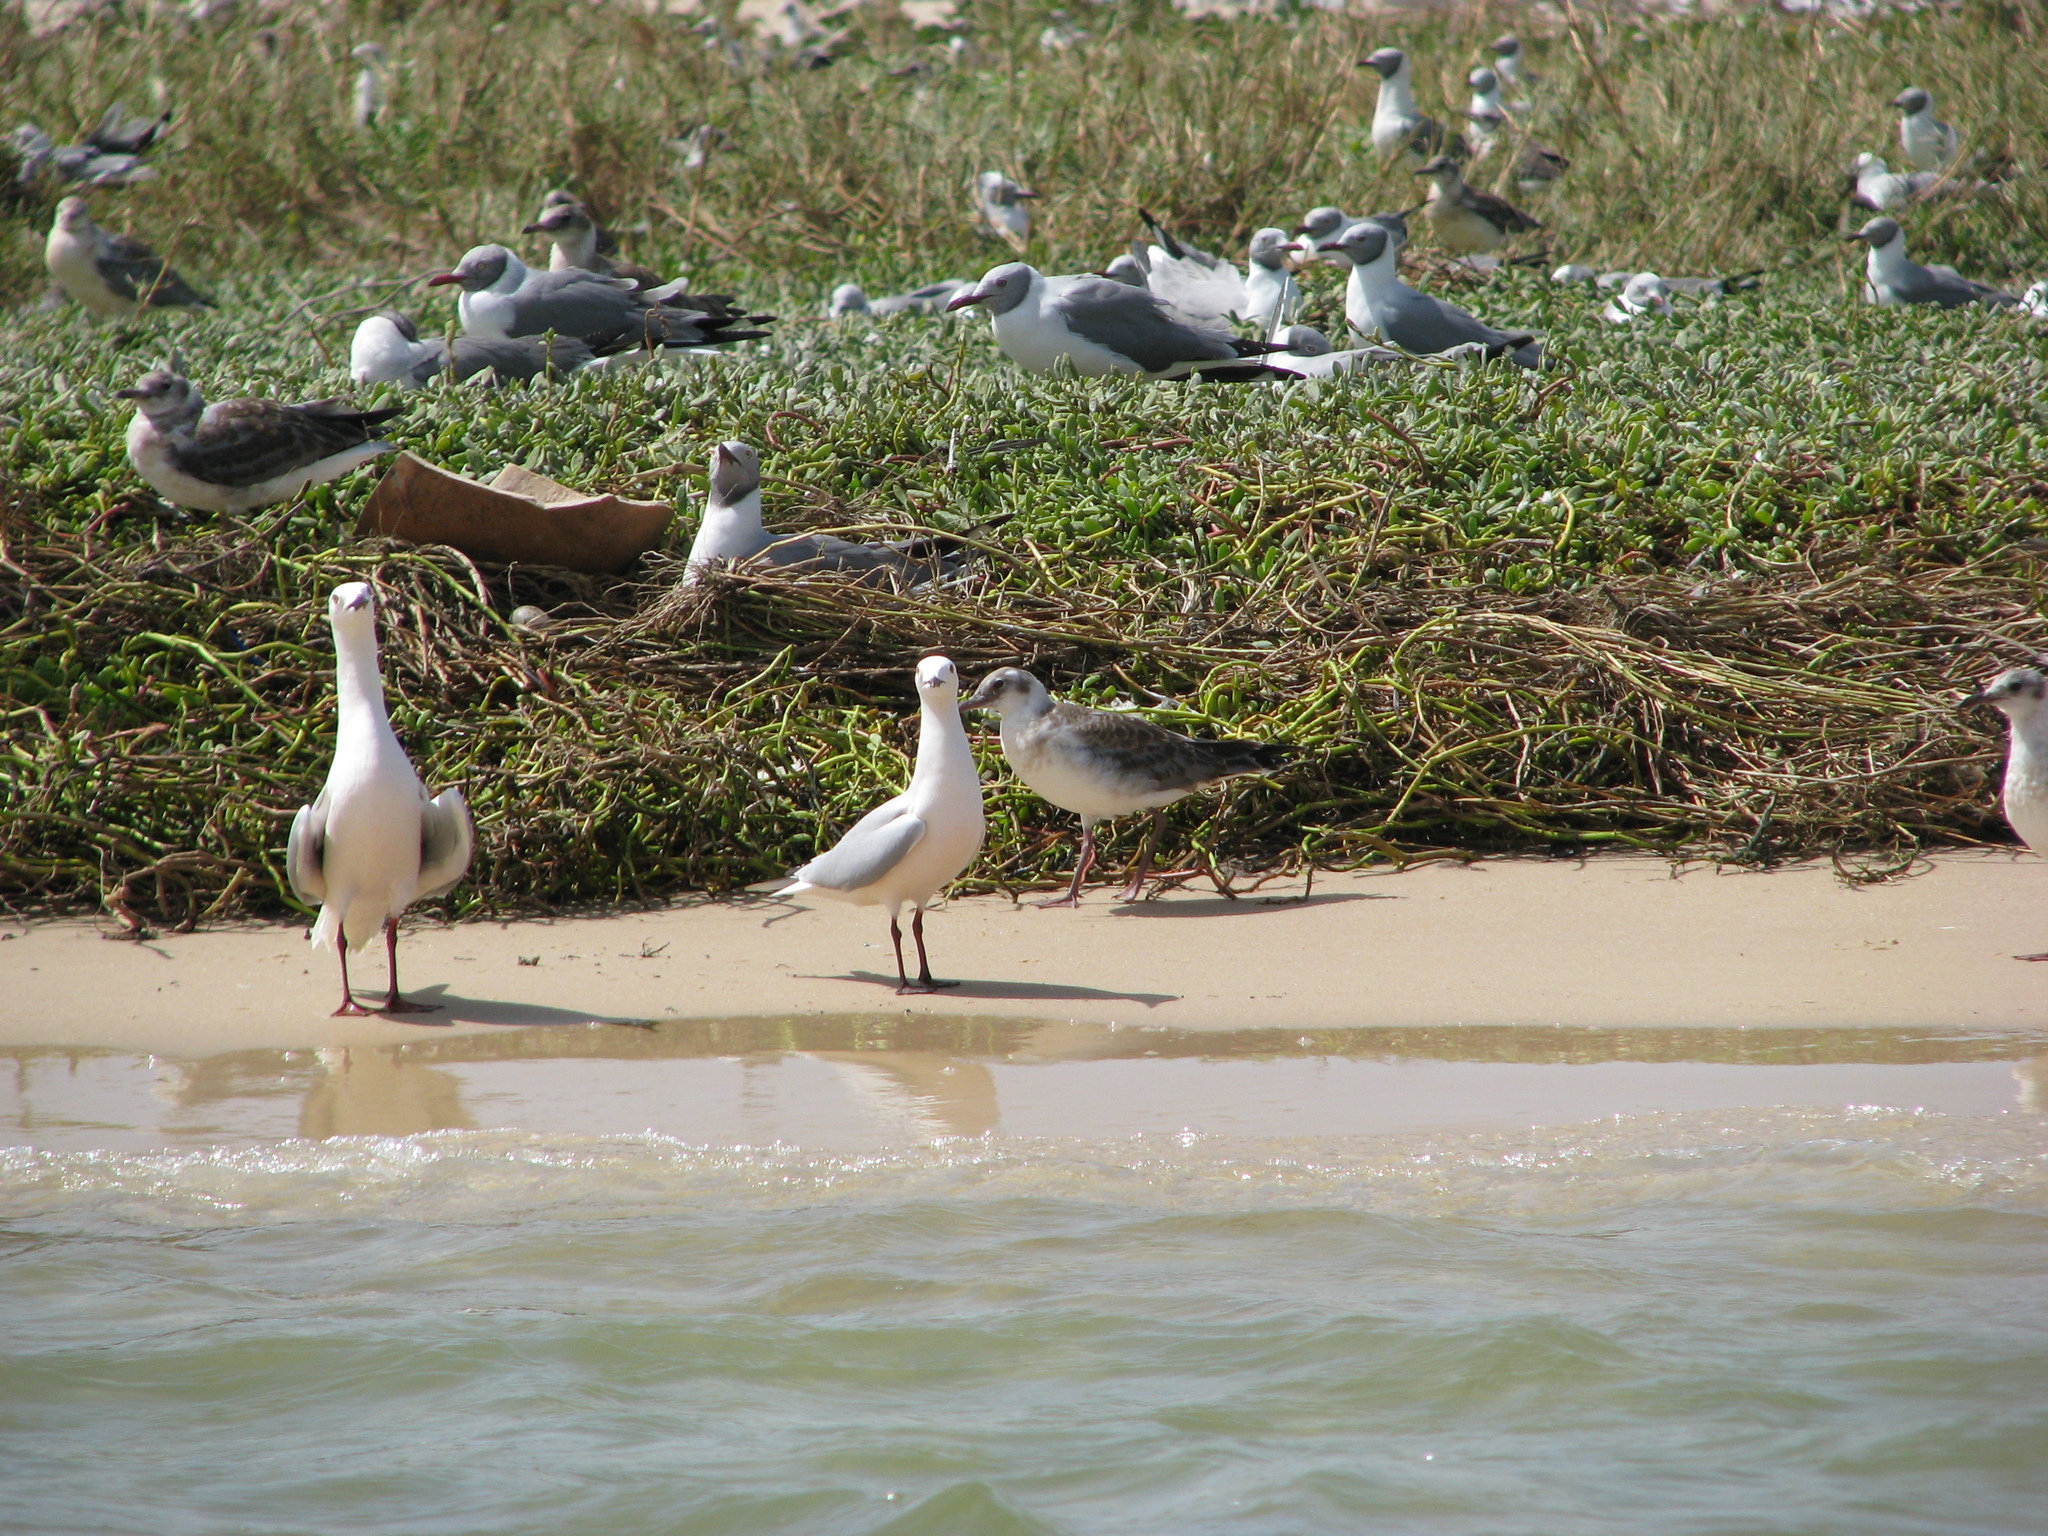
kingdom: Animalia
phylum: Chordata
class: Aves
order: Charadriiformes
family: Laridae
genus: Chroicocephalus
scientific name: Chroicocephalus genei
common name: Slender-billed gull
